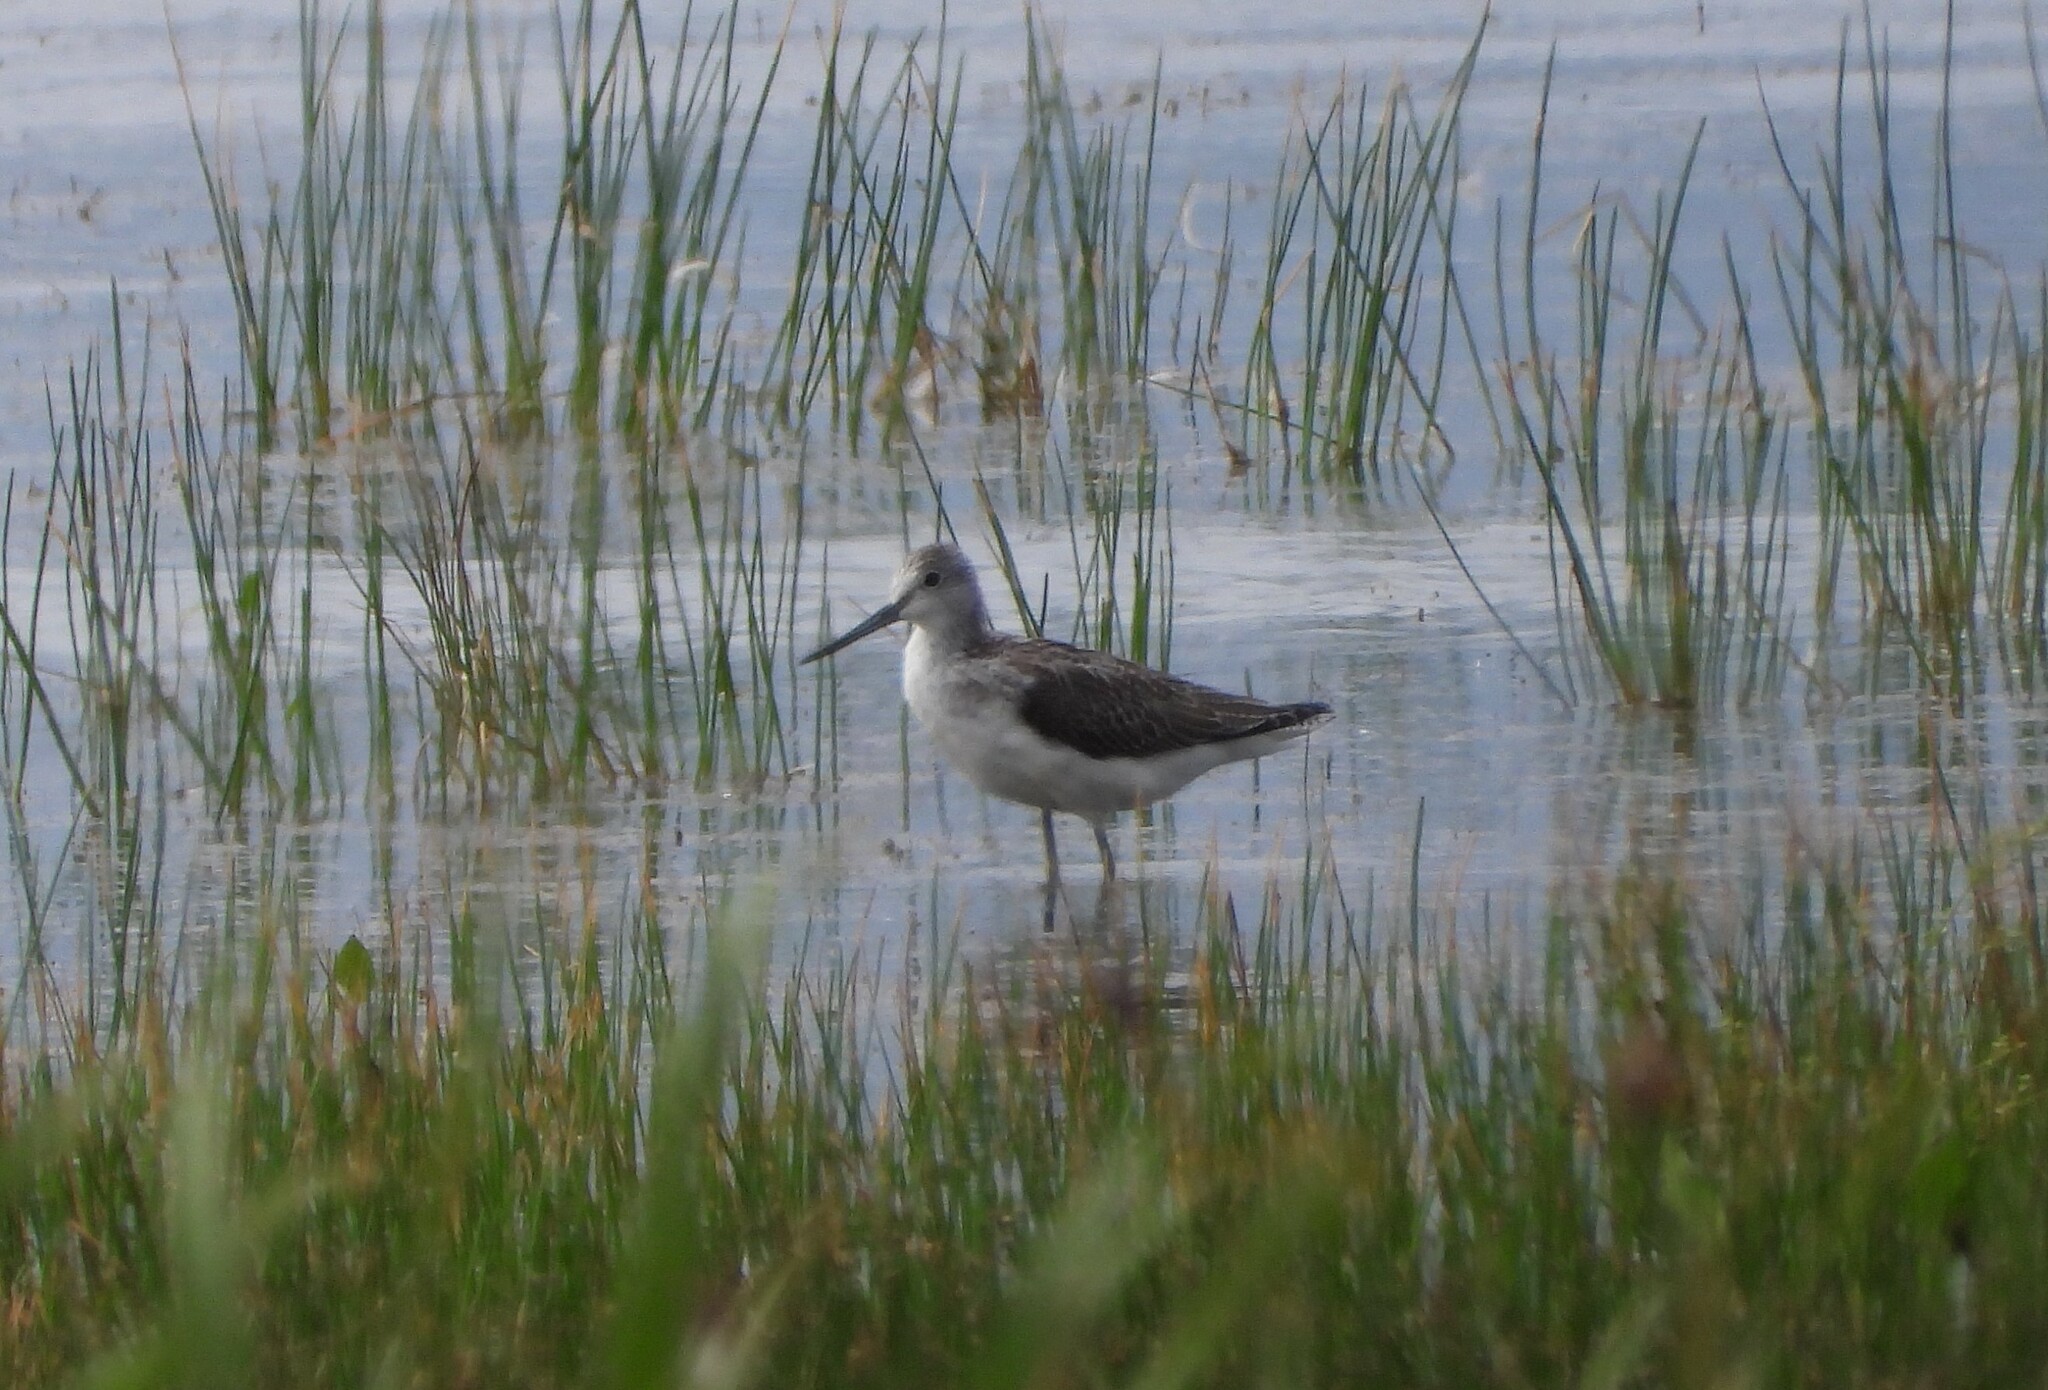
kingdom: Animalia
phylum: Chordata
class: Aves
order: Charadriiformes
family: Scolopacidae
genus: Tringa
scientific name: Tringa nebularia
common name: Common greenshank
